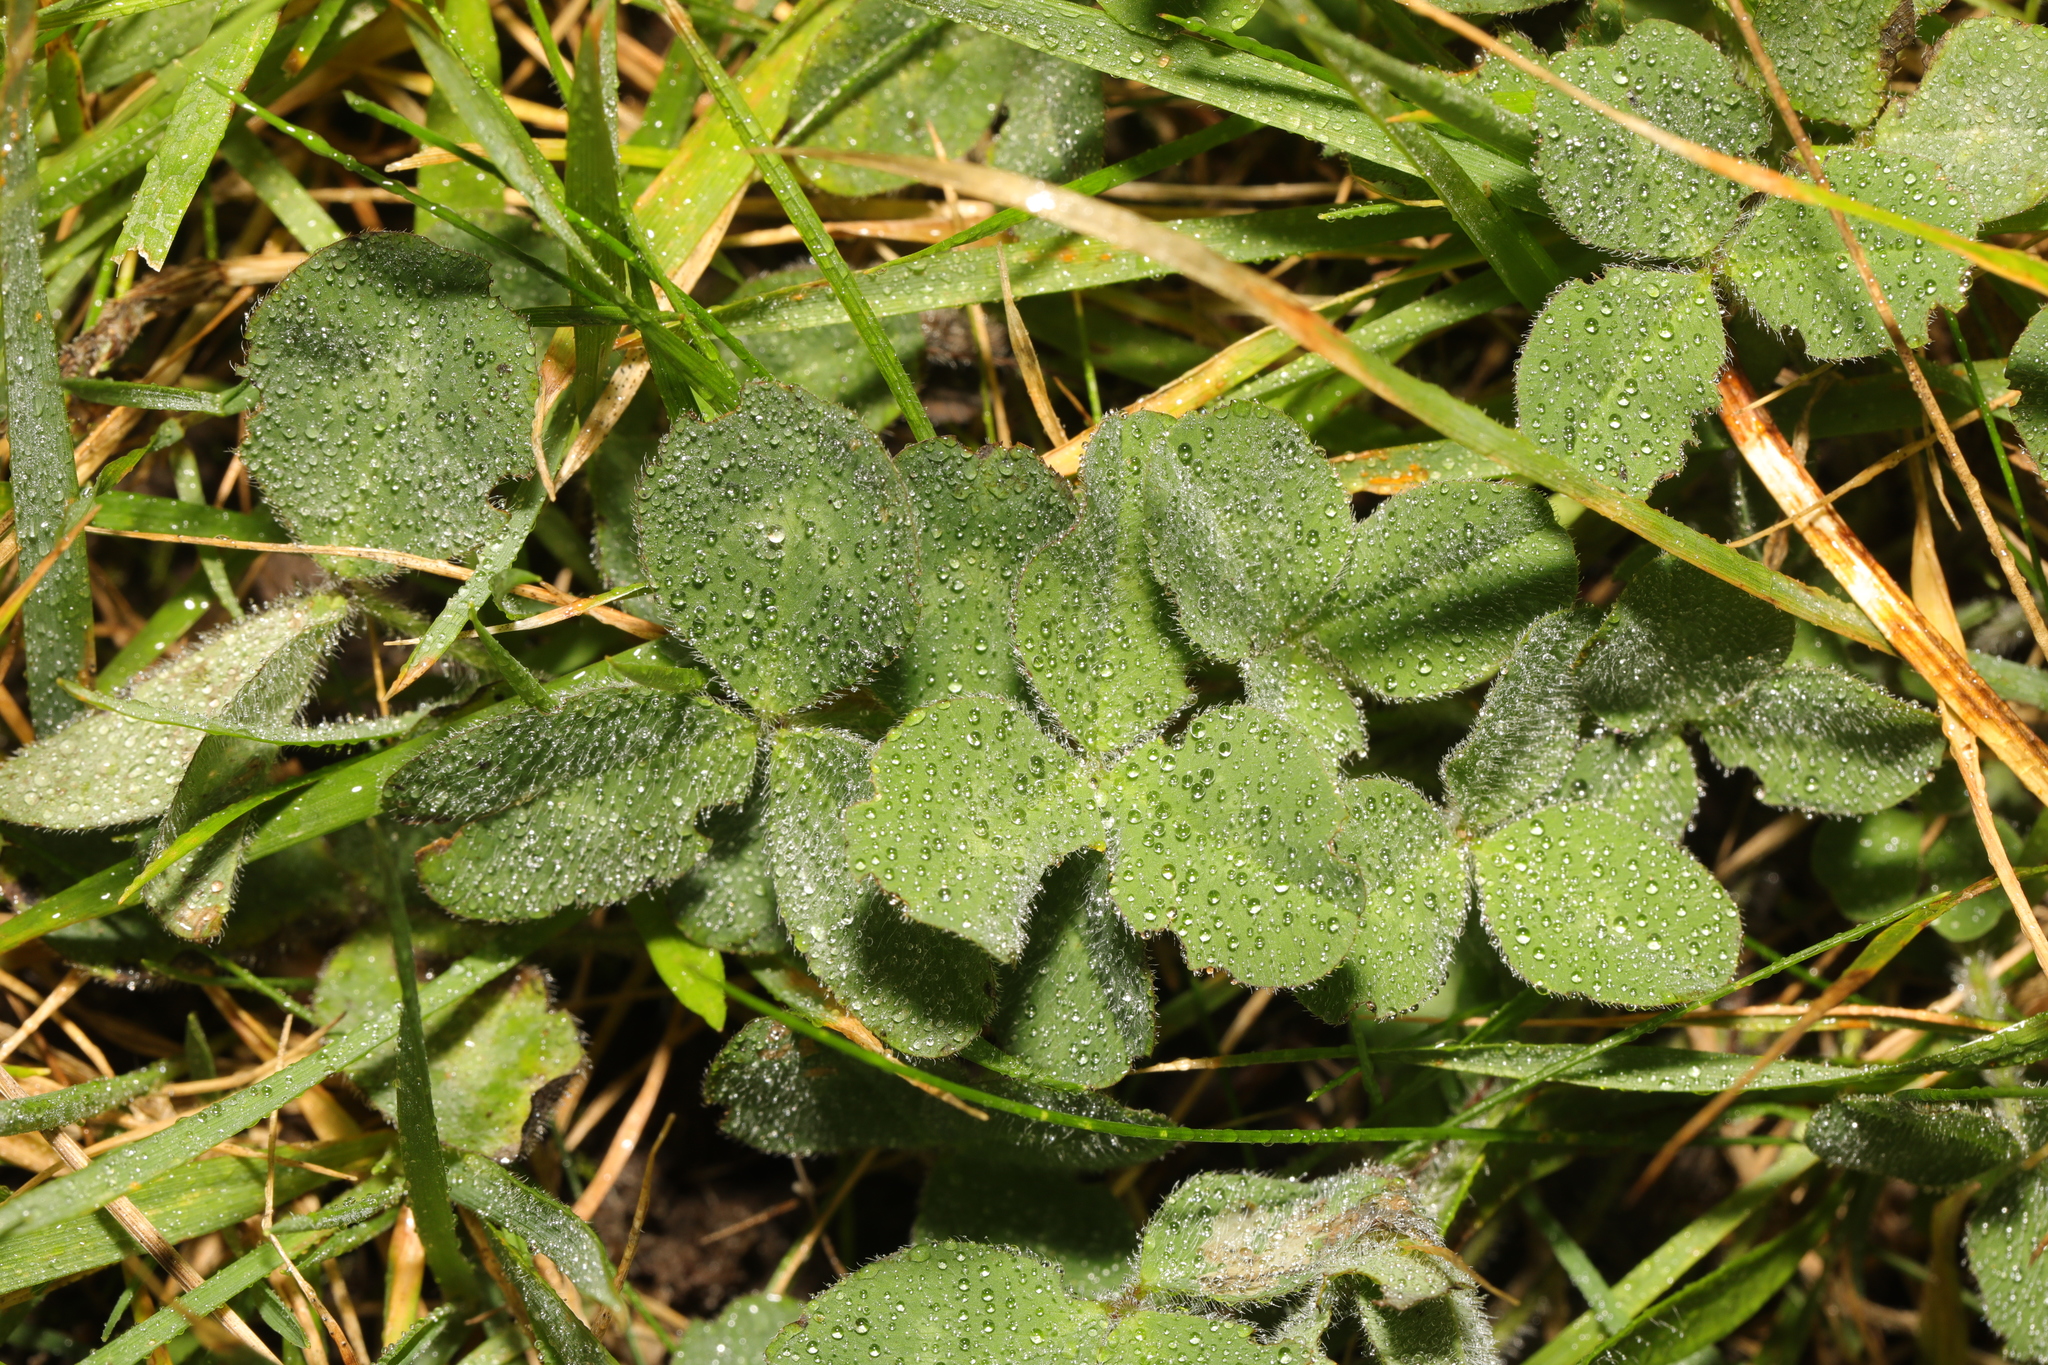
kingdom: Plantae
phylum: Tracheophyta
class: Magnoliopsida
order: Fabales
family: Fabaceae
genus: Trifolium
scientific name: Trifolium pratense
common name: Red clover
